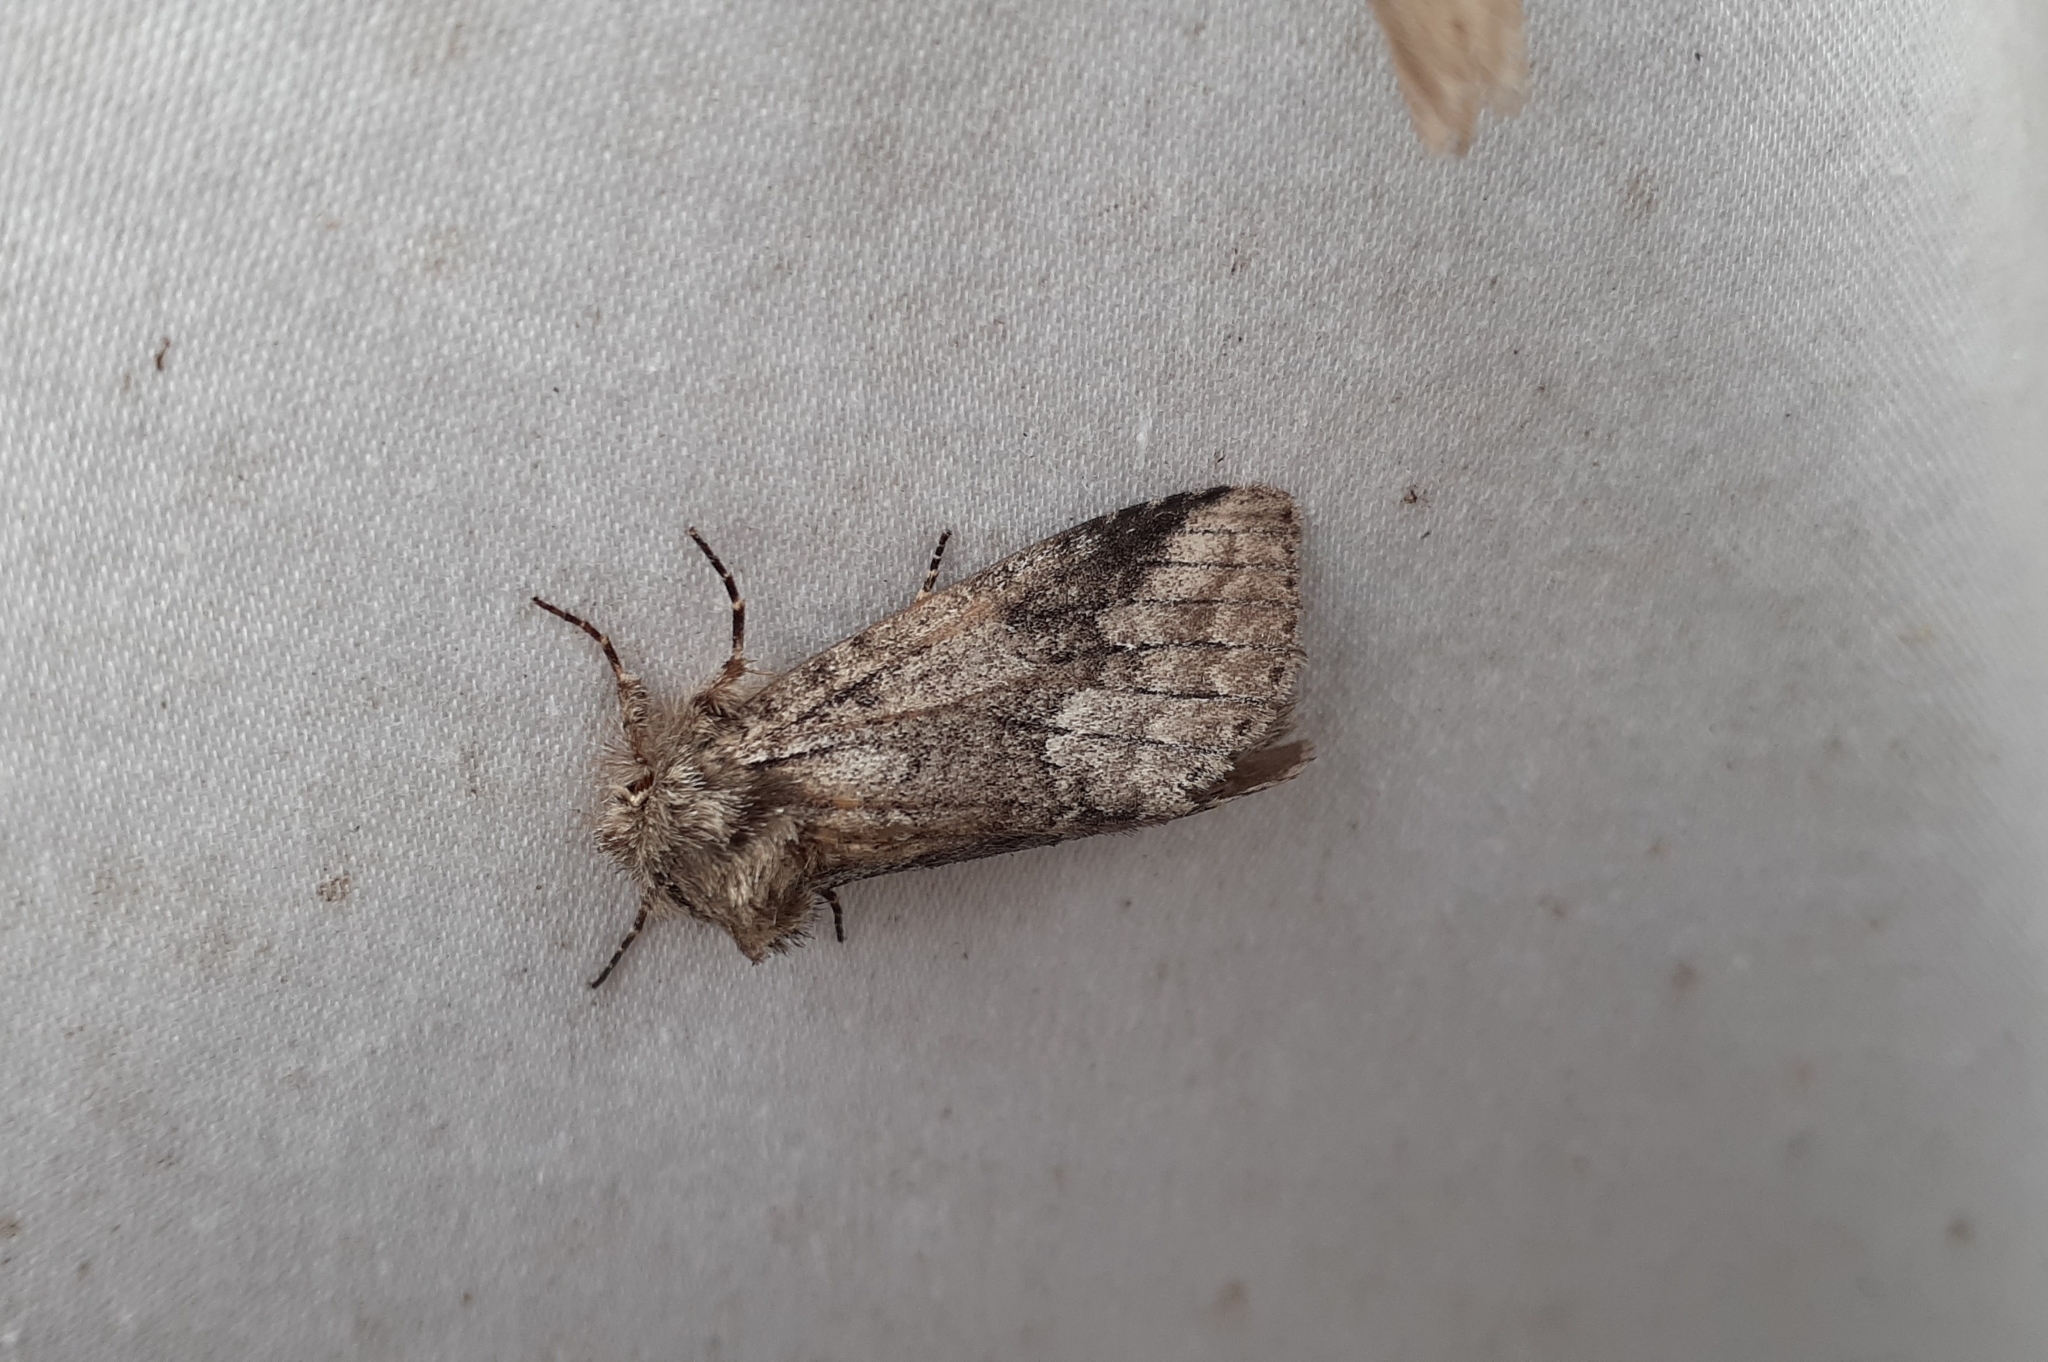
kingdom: Animalia
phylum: Arthropoda
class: Insecta
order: Lepidoptera
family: Notodontidae
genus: Lochmaeus
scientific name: Lochmaeus bilineata
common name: Double-lined prominent
